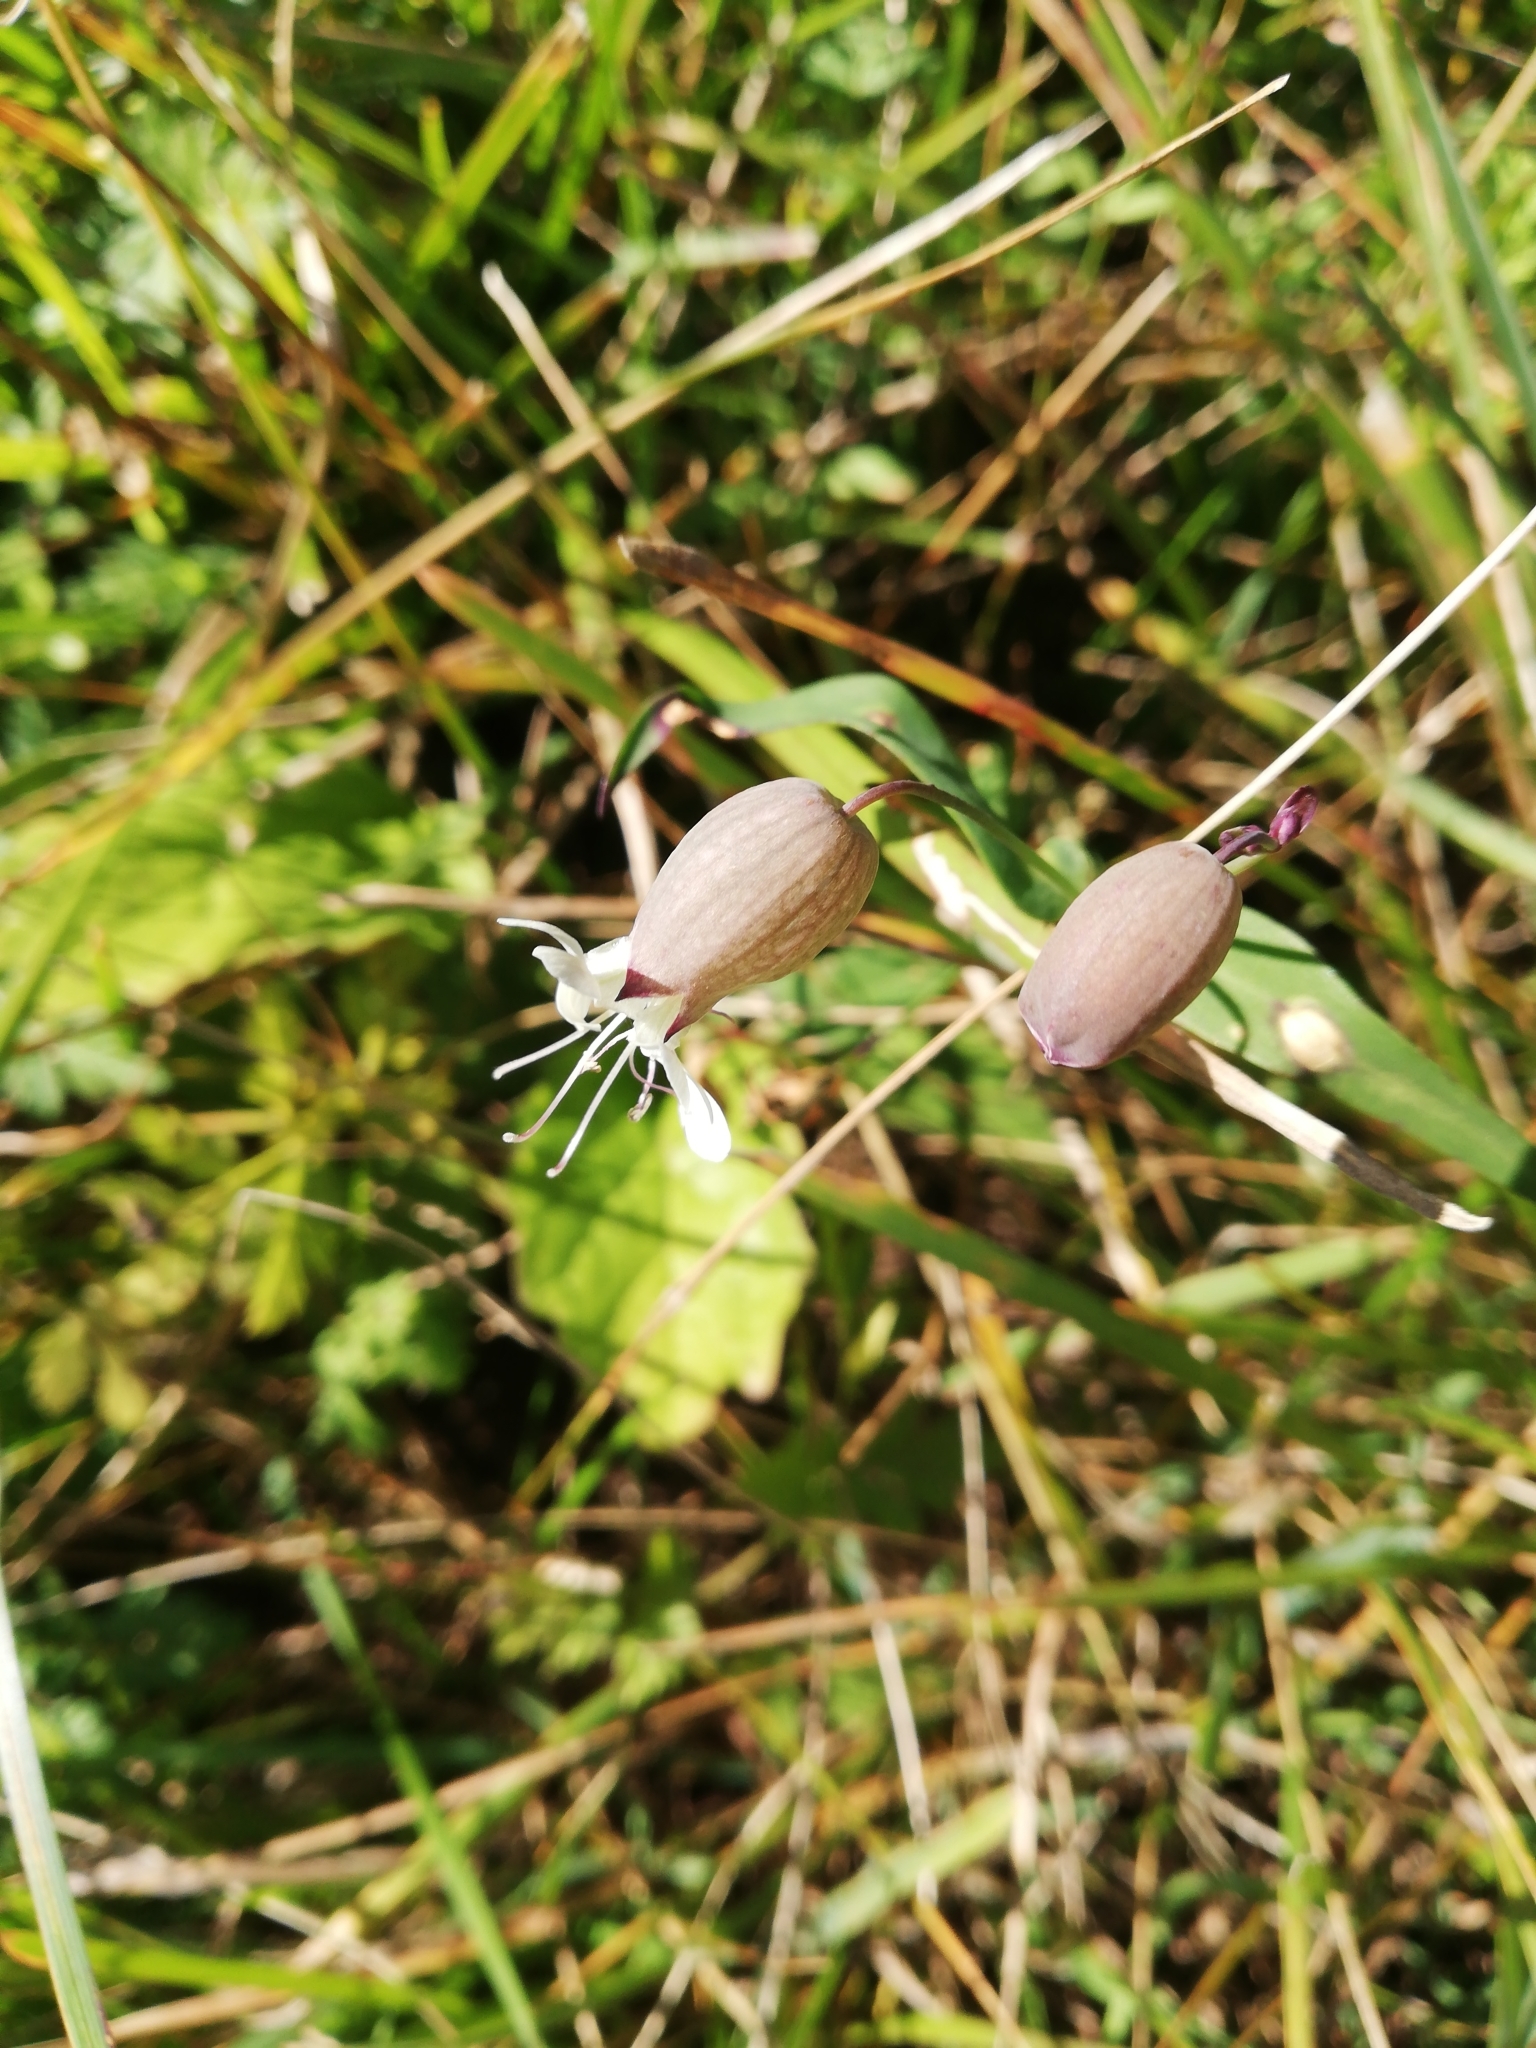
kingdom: Plantae
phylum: Tracheophyta
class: Magnoliopsida
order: Caryophyllales
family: Caryophyllaceae
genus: Silene
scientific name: Silene vulgaris
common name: Bladder campion
